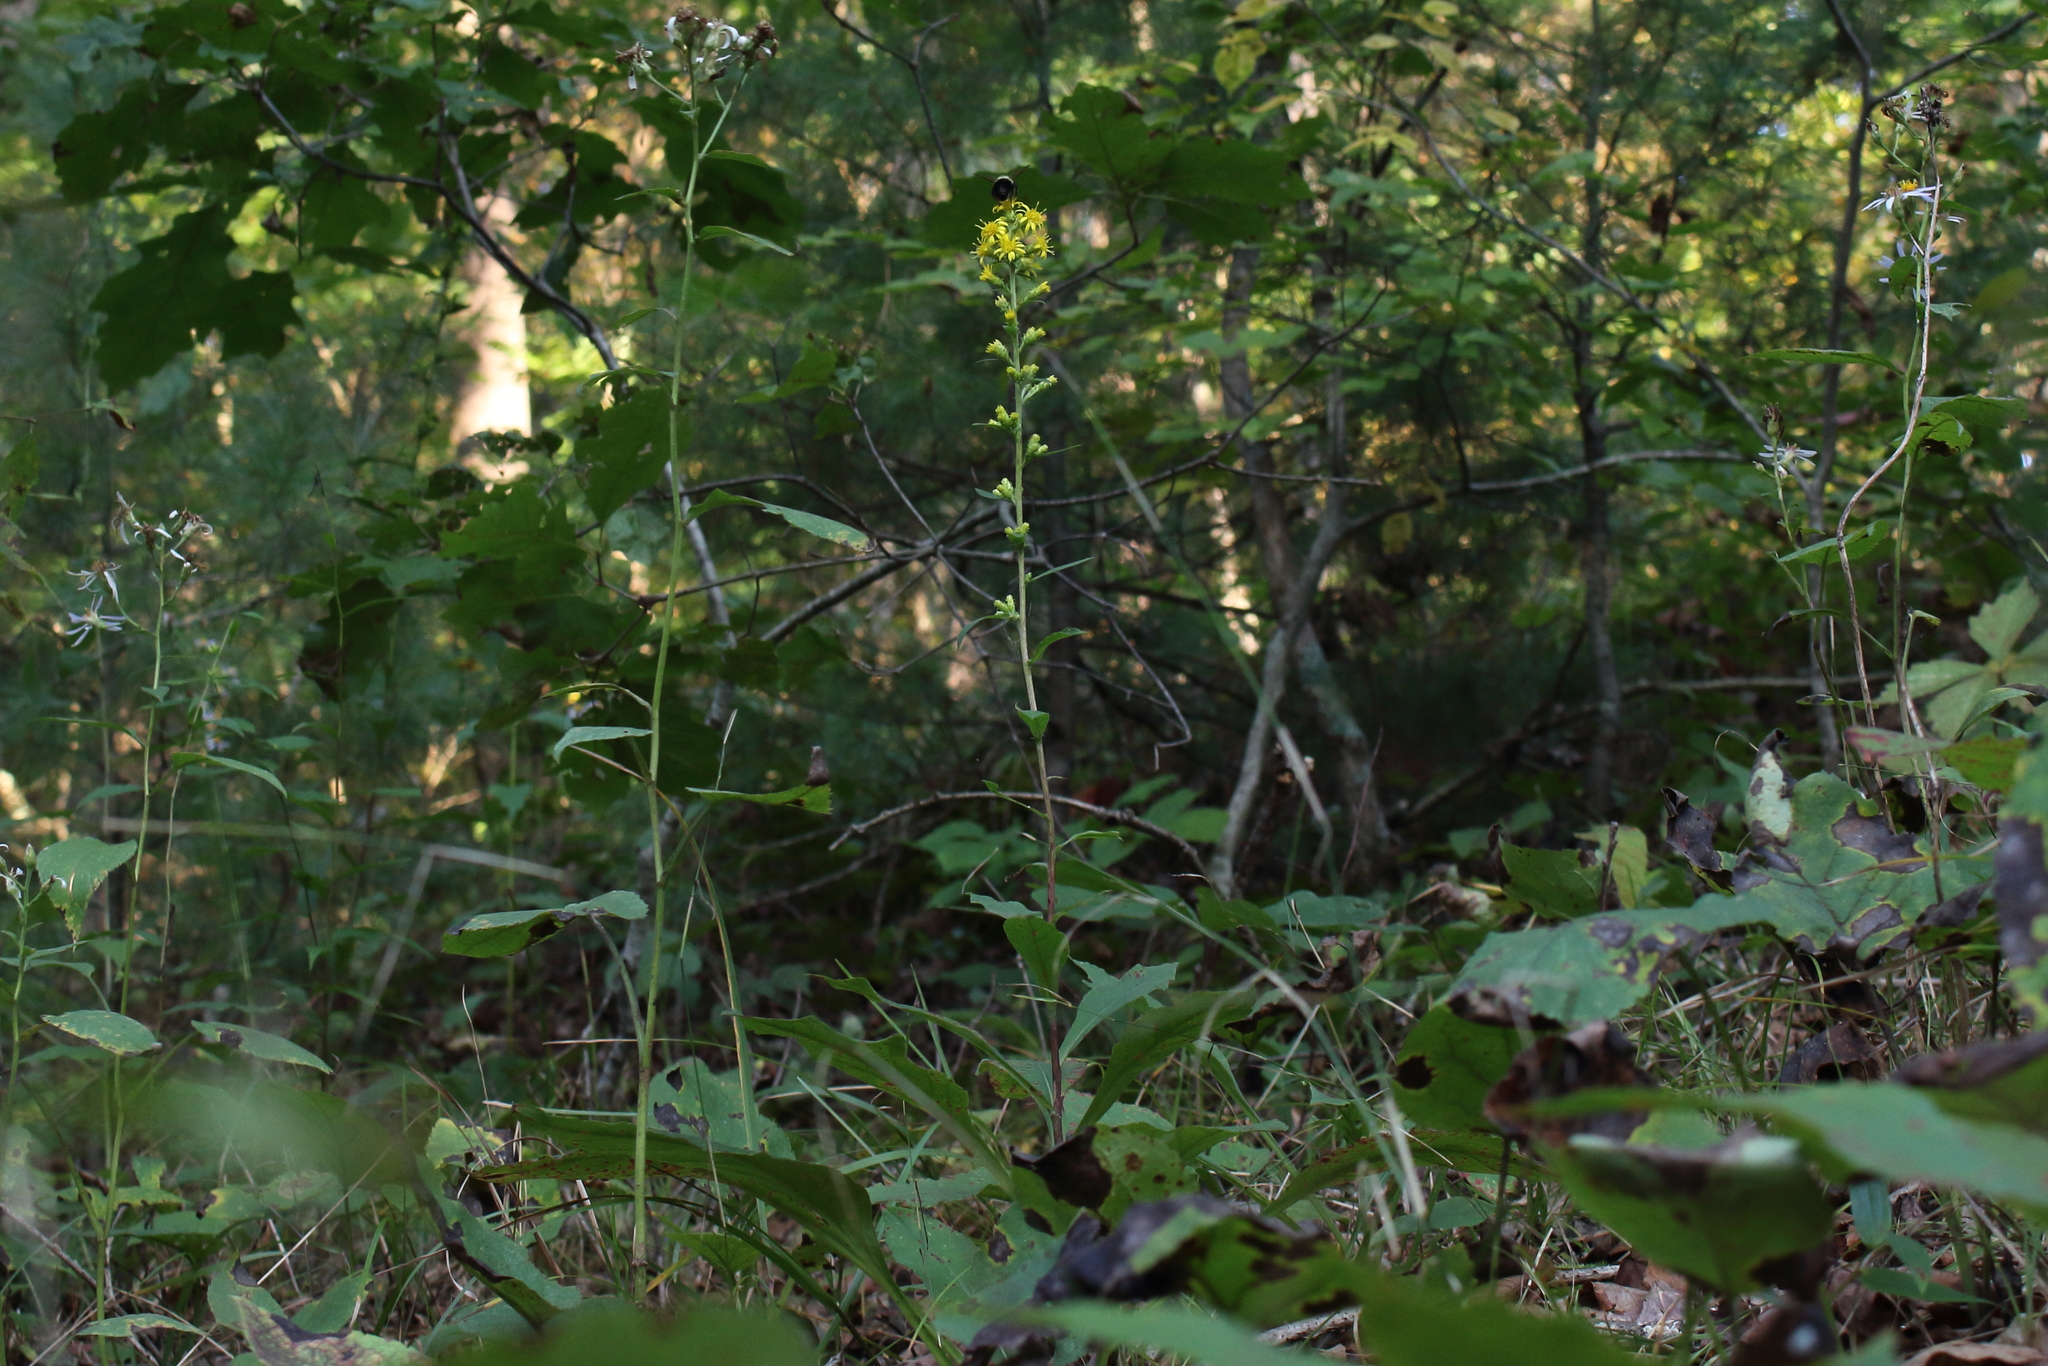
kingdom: Plantae
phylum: Tracheophyta
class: Magnoliopsida
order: Asterales
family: Asteraceae
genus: Solidago
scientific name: Solidago squarrosa
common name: Stout goldenrod
